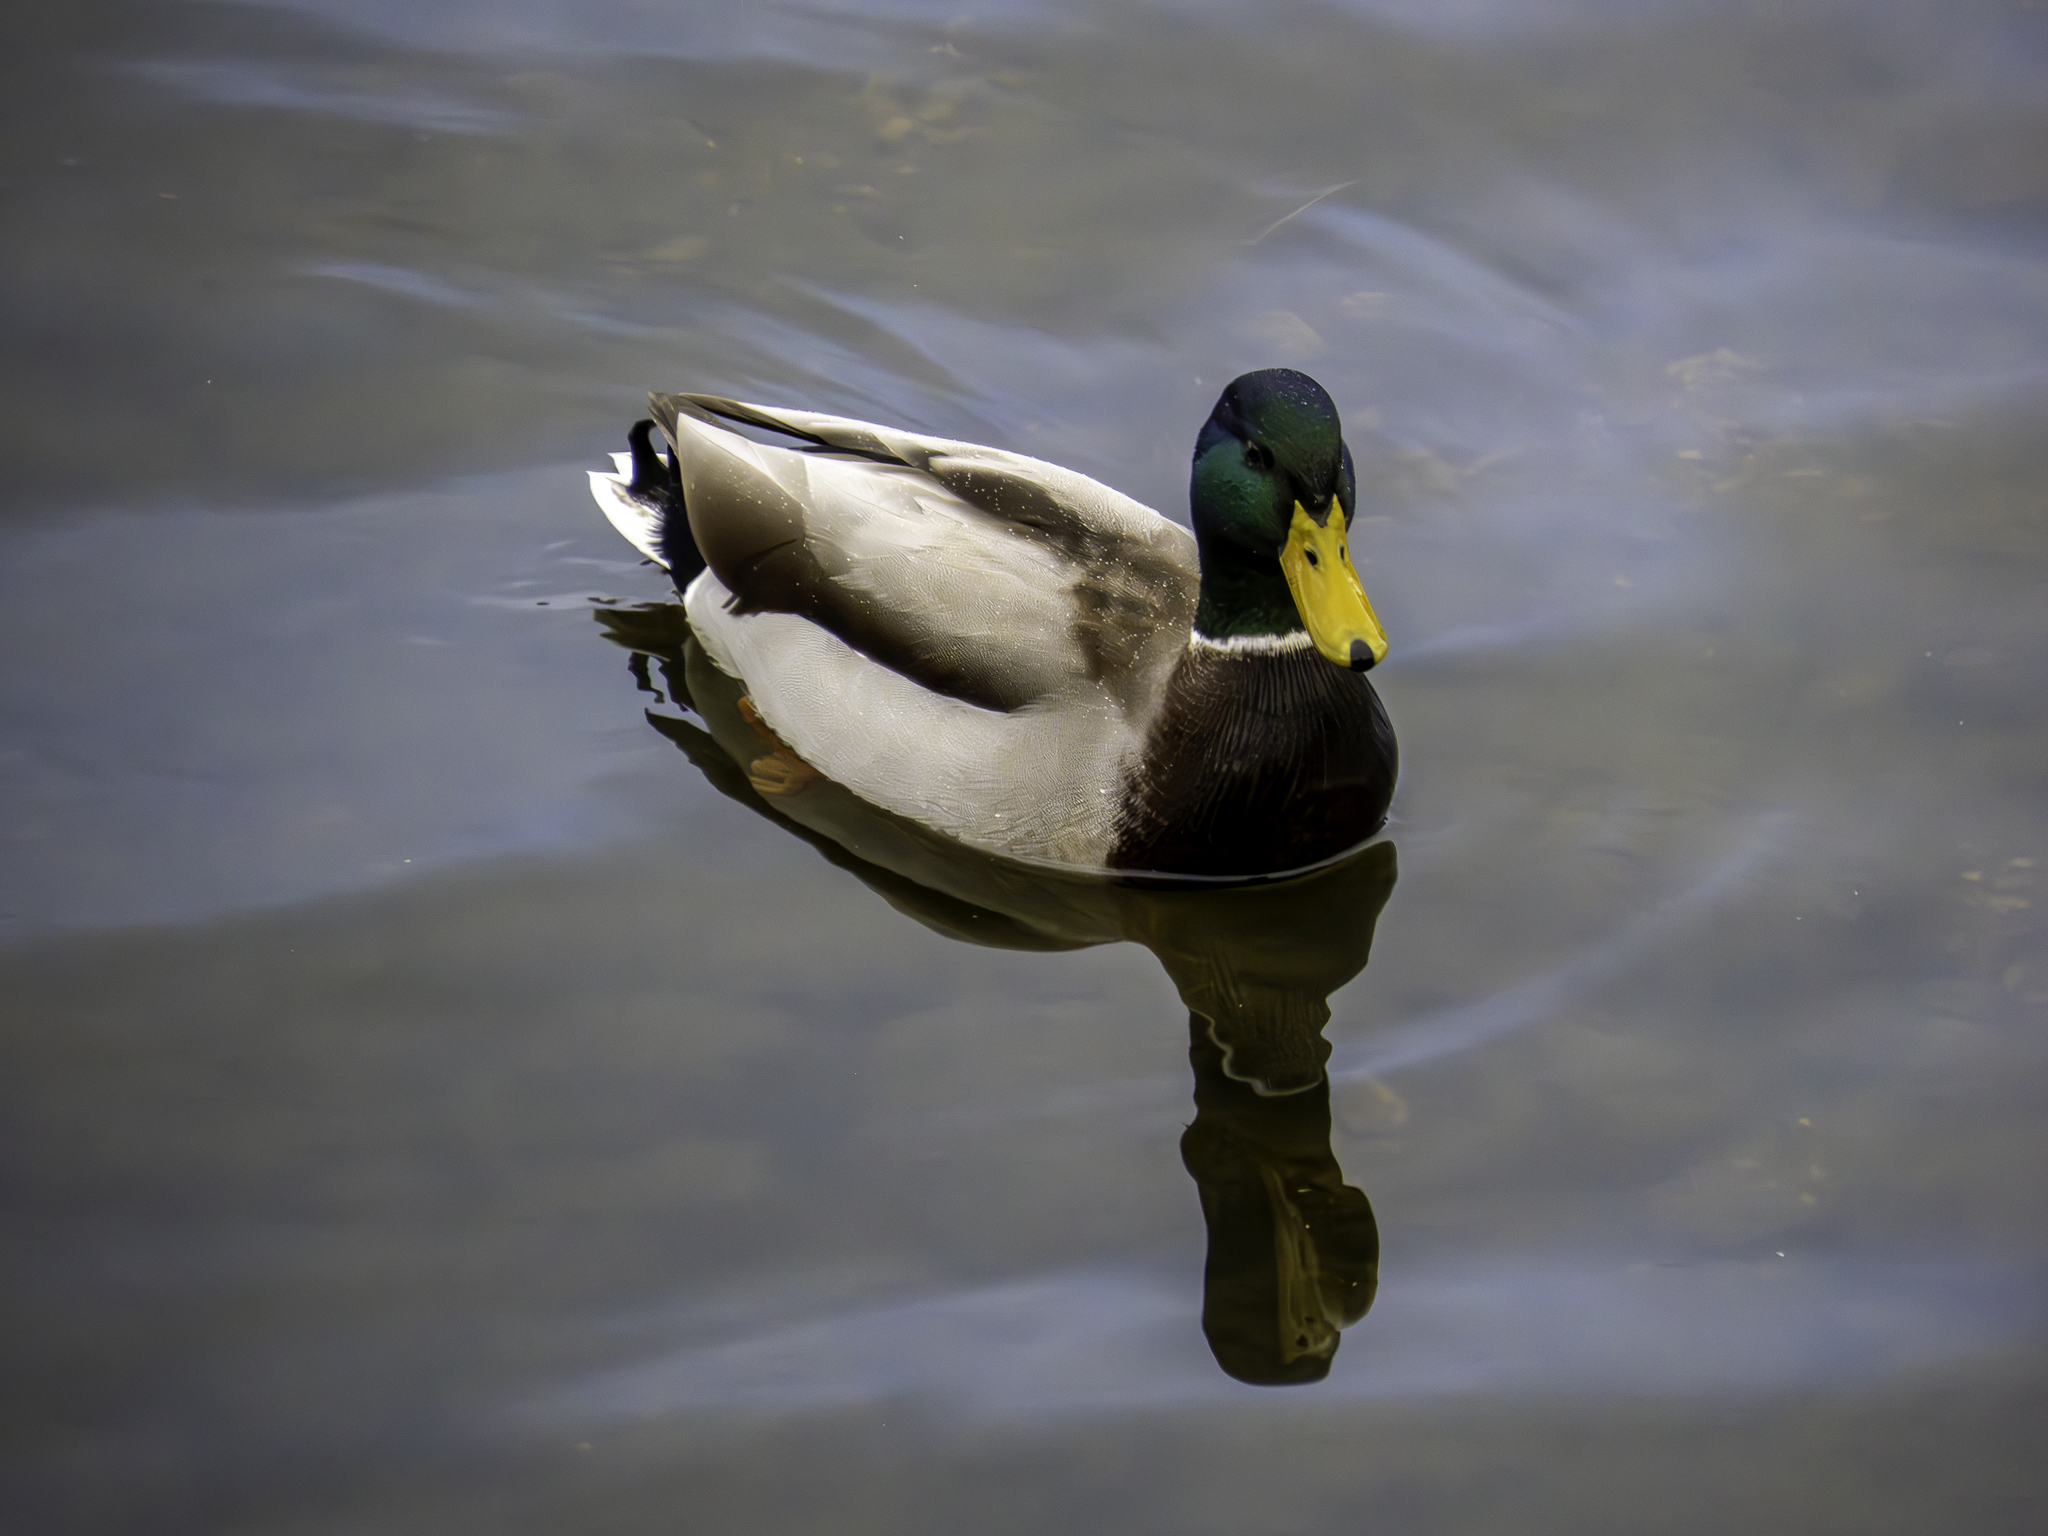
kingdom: Animalia
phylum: Chordata
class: Aves
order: Anseriformes
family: Anatidae
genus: Anas
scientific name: Anas platyrhynchos
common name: Mallard
